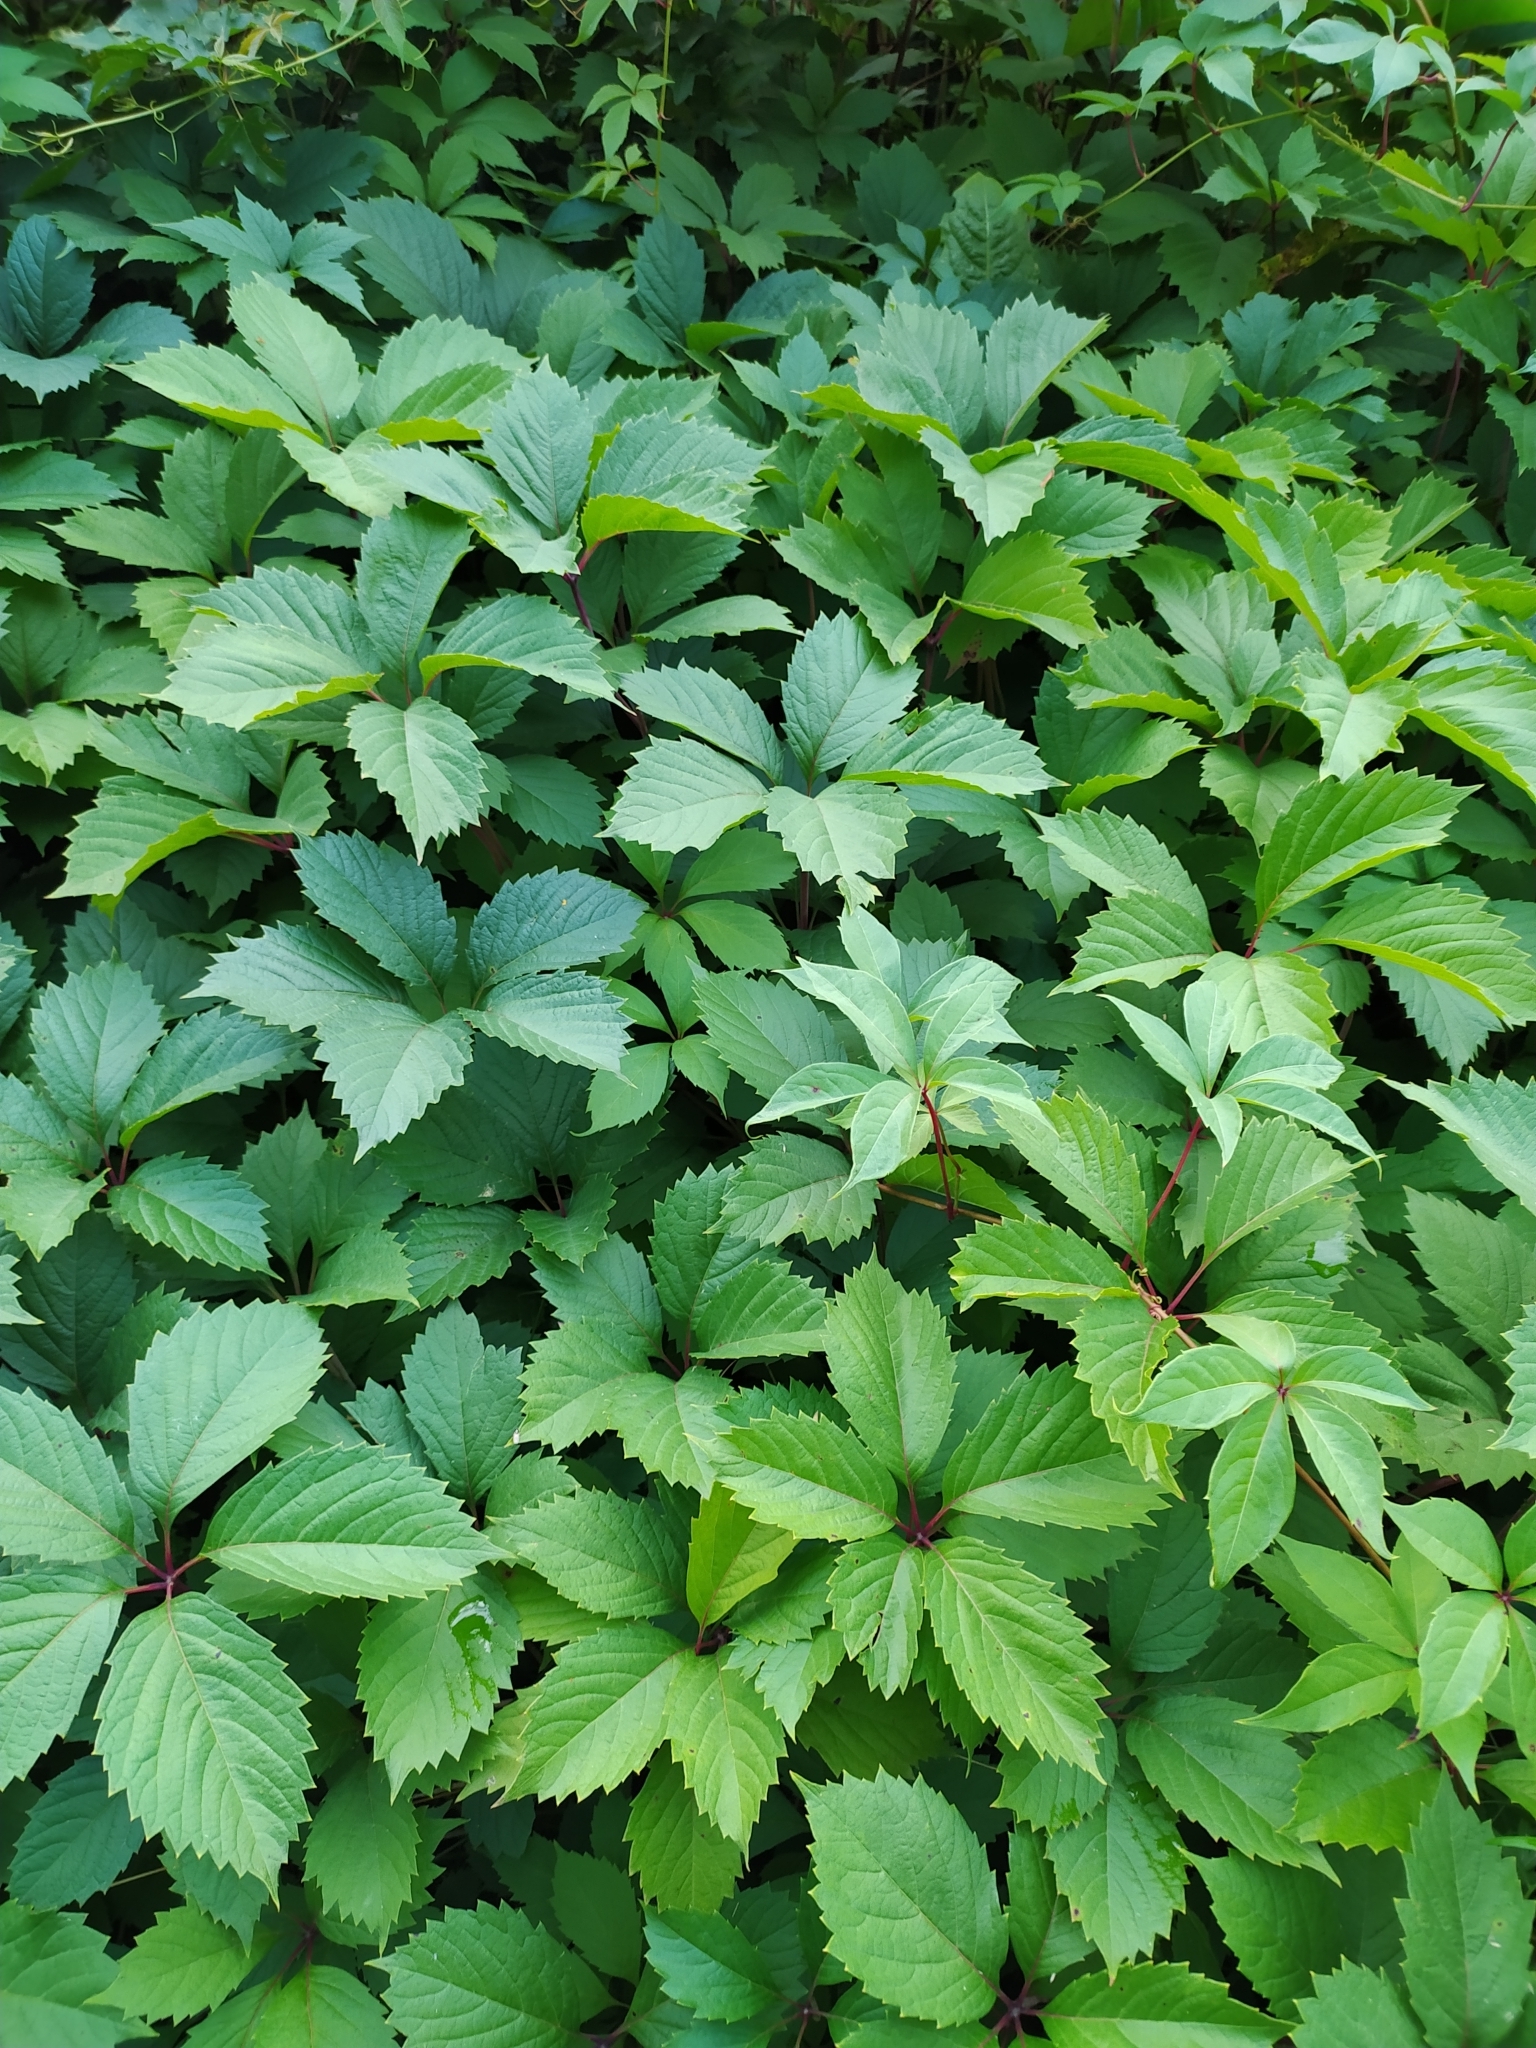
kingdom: Plantae
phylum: Tracheophyta
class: Magnoliopsida
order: Vitales
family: Vitaceae
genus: Parthenocissus
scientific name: Parthenocissus inserta
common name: False virginia-creeper
